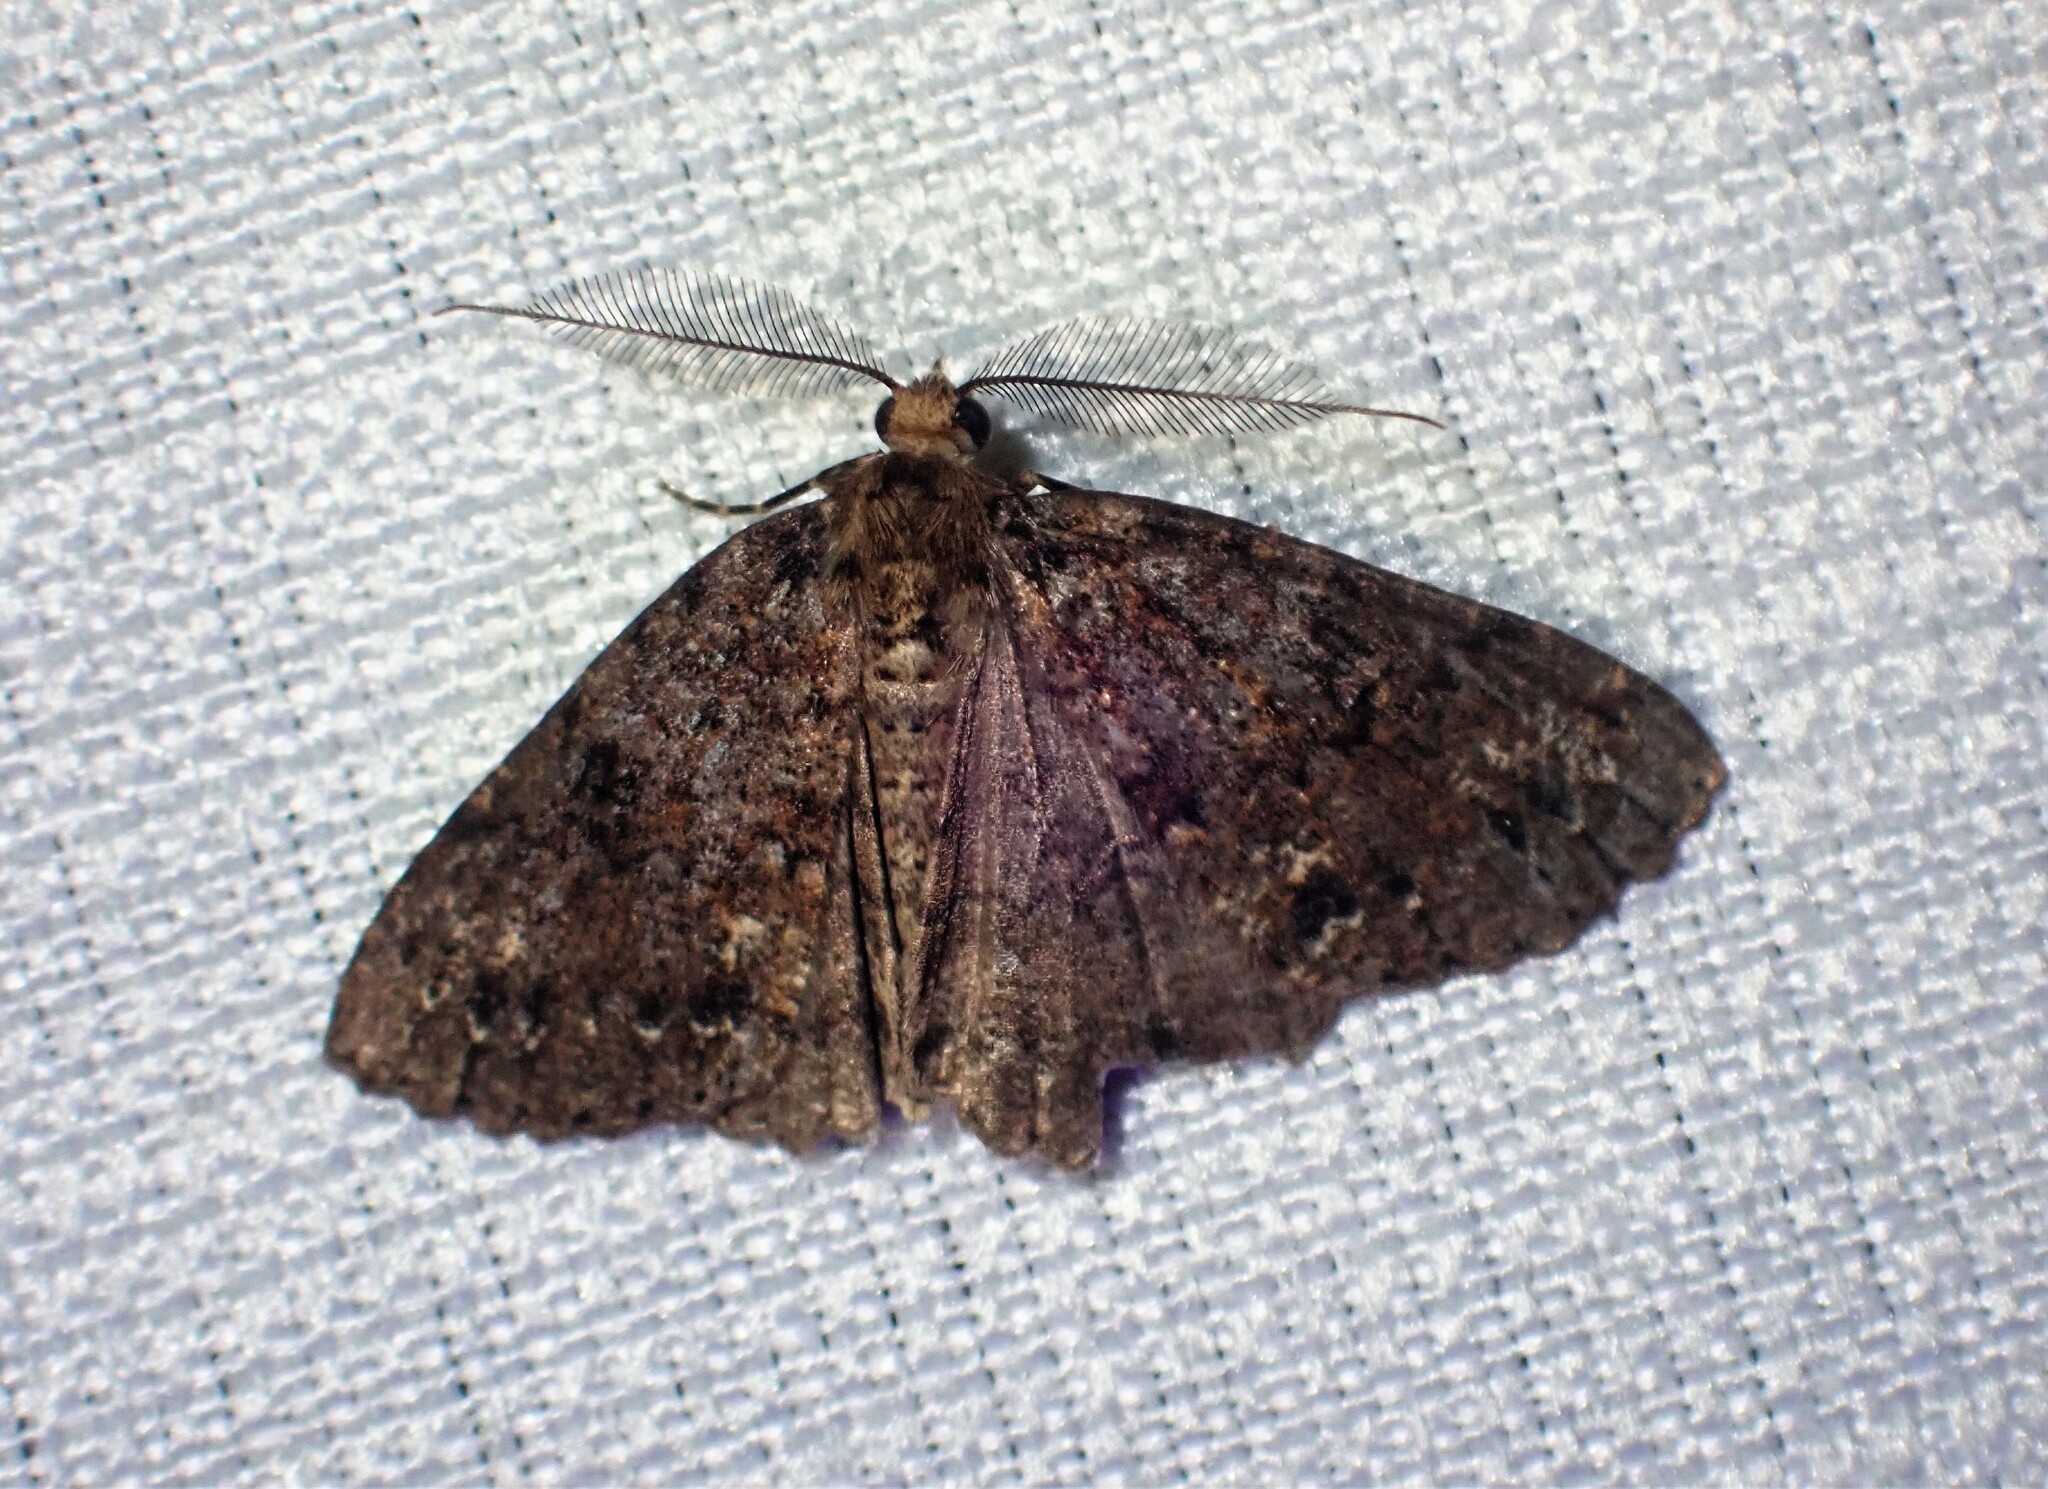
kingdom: Animalia
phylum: Arthropoda
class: Insecta
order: Lepidoptera
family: Geometridae
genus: Ascotis
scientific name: Ascotis fortunata
